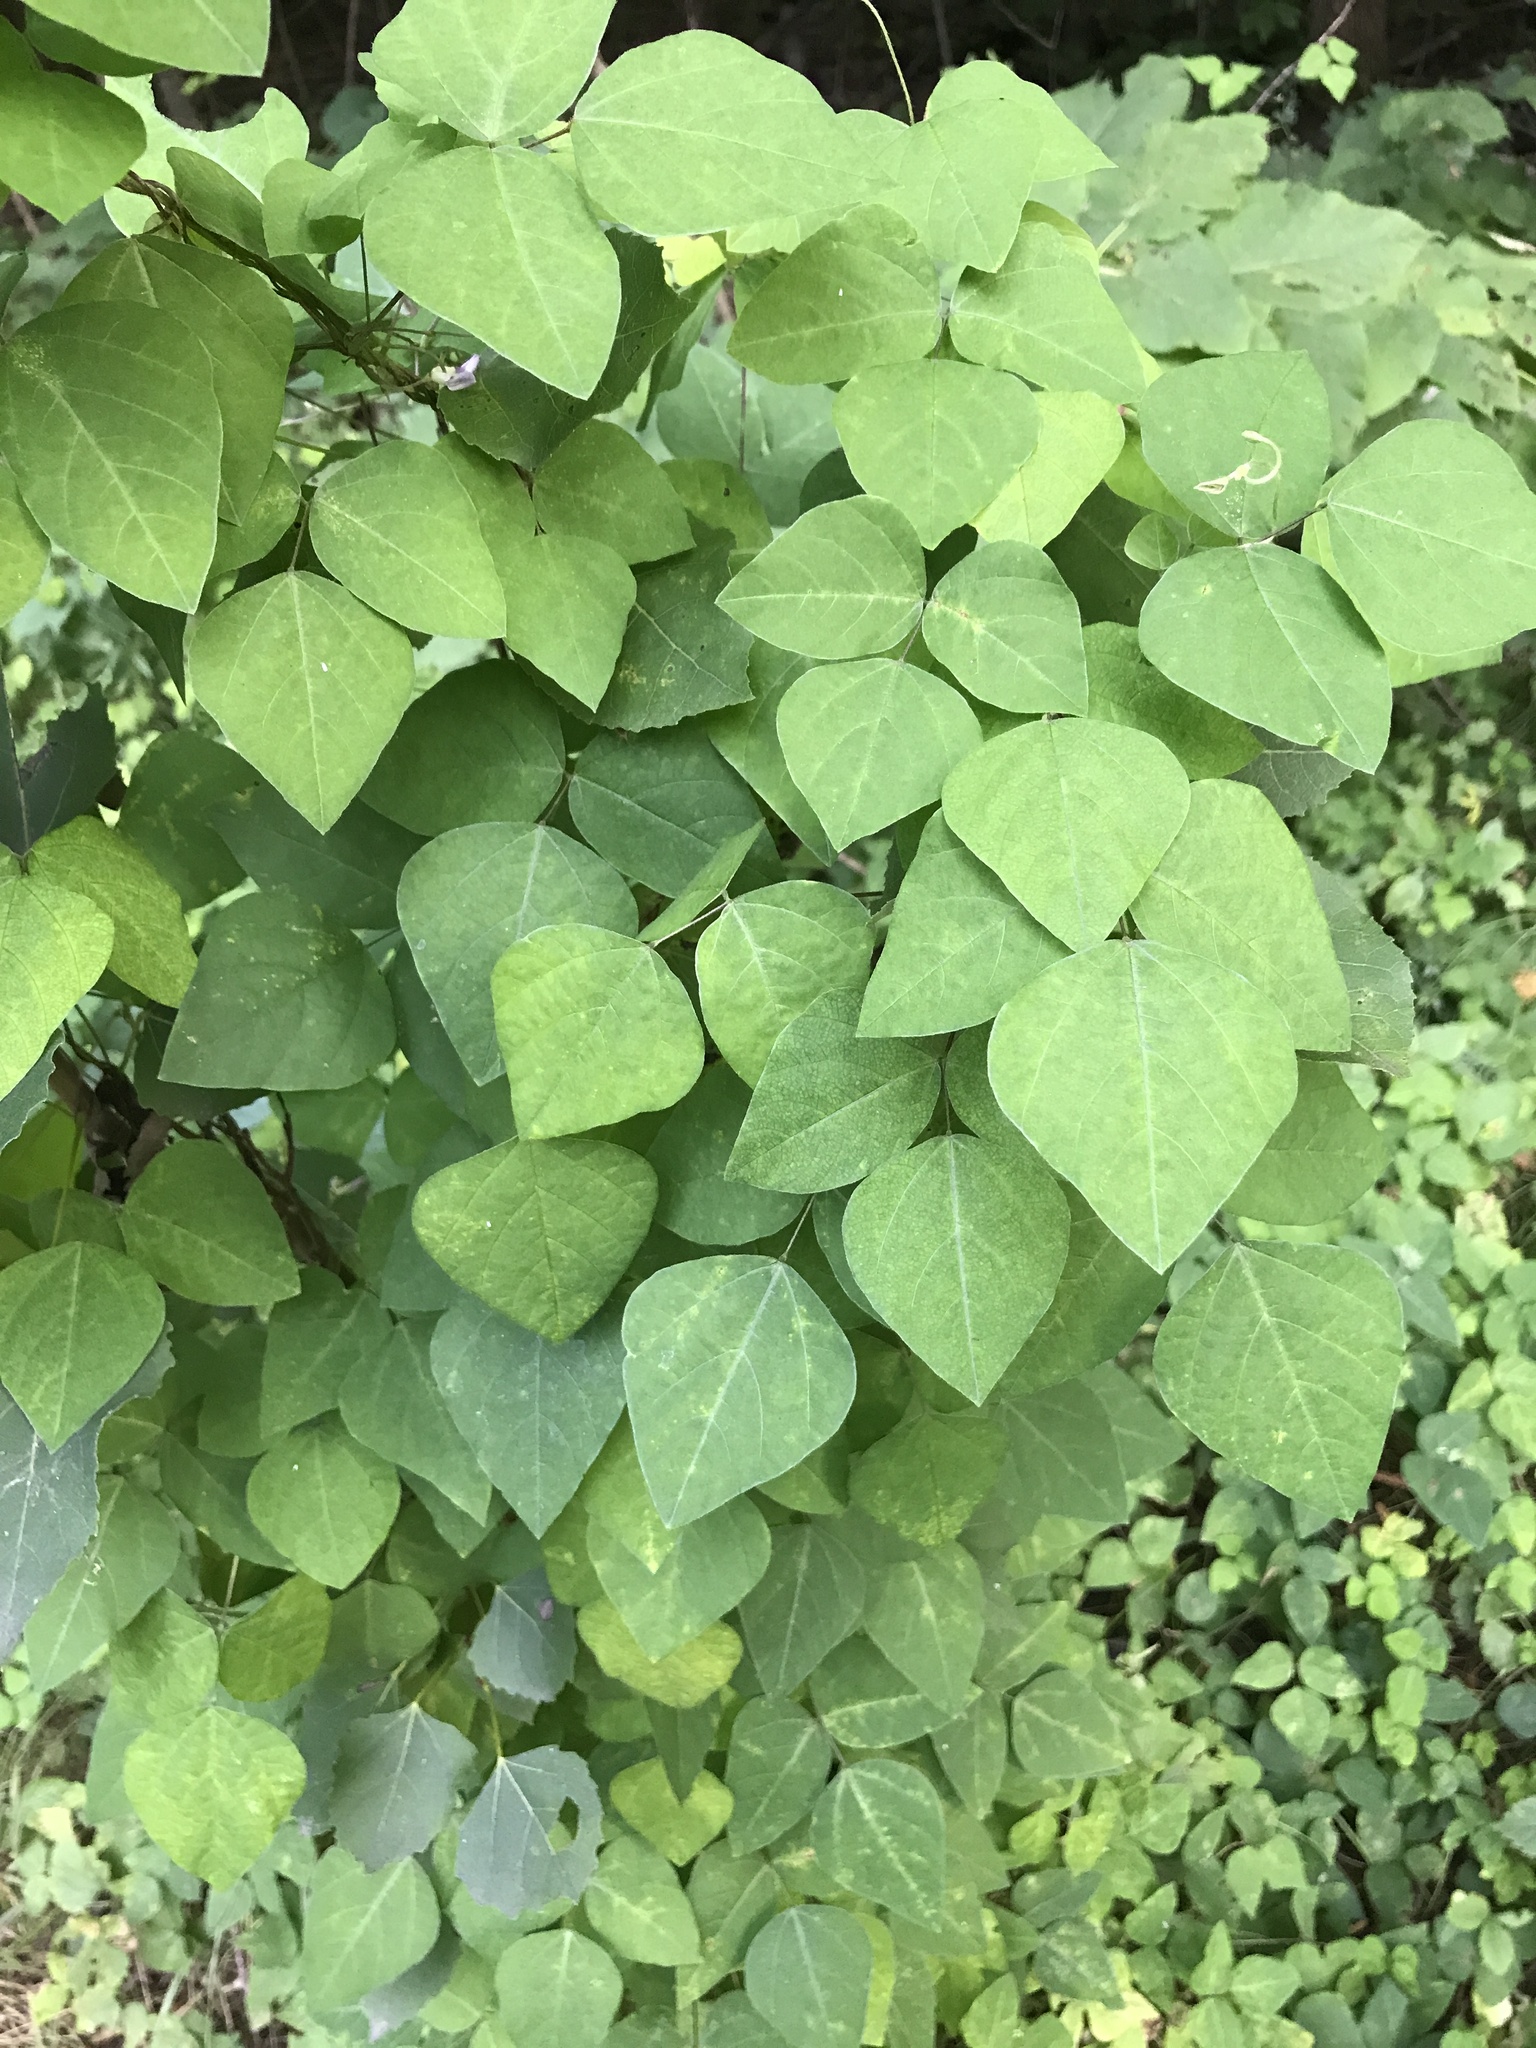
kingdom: Plantae
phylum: Tracheophyta
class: Magnoliopsida
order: Fabales
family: Fabaceae
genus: Amphicarpaea
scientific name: Amphicarpaea bracteata
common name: American hog peanut
